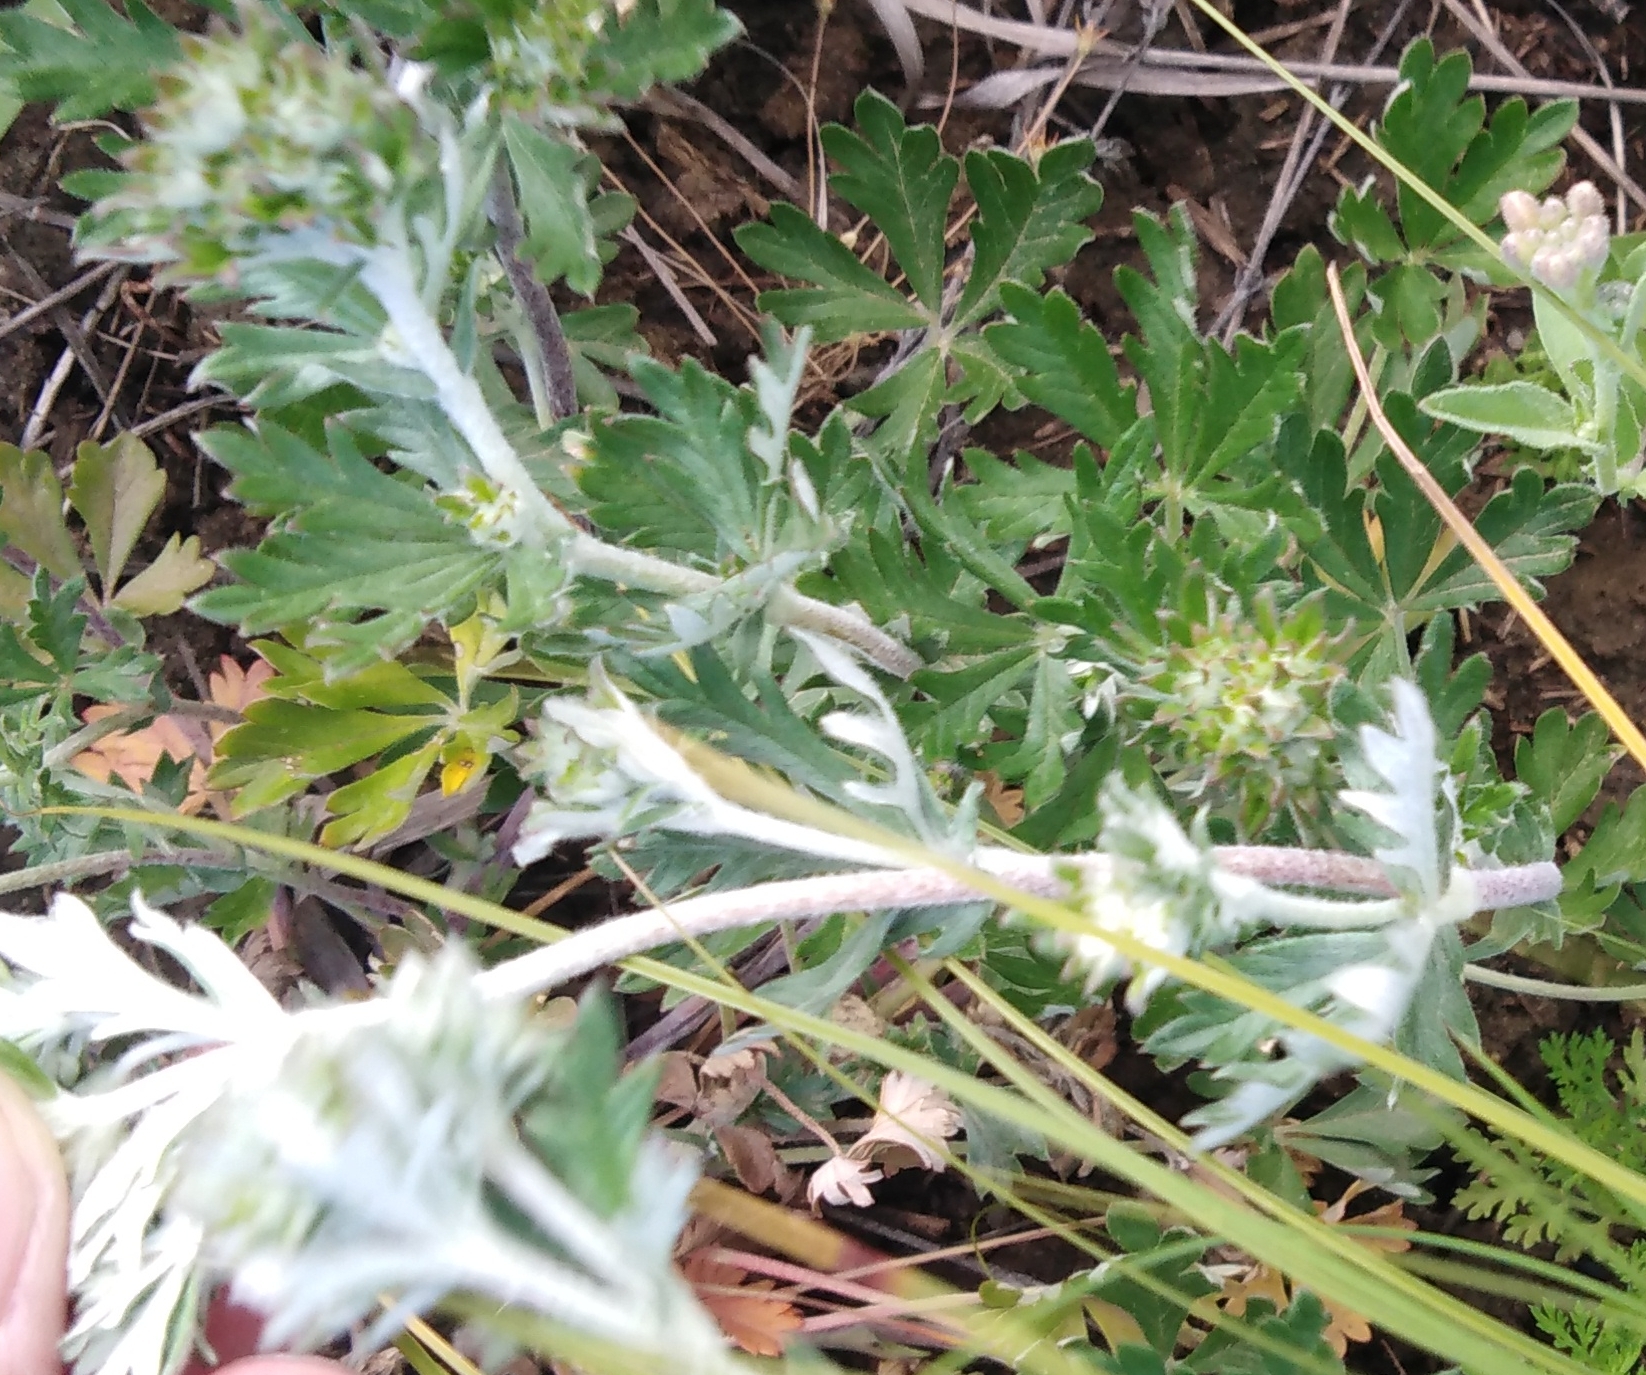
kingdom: Plantae
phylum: Tracheophyta
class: Magnoliopsida
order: Rosales
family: Rosaceae
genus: Potentilla
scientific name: Potentilla argentea
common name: Hoary cinquefoil
